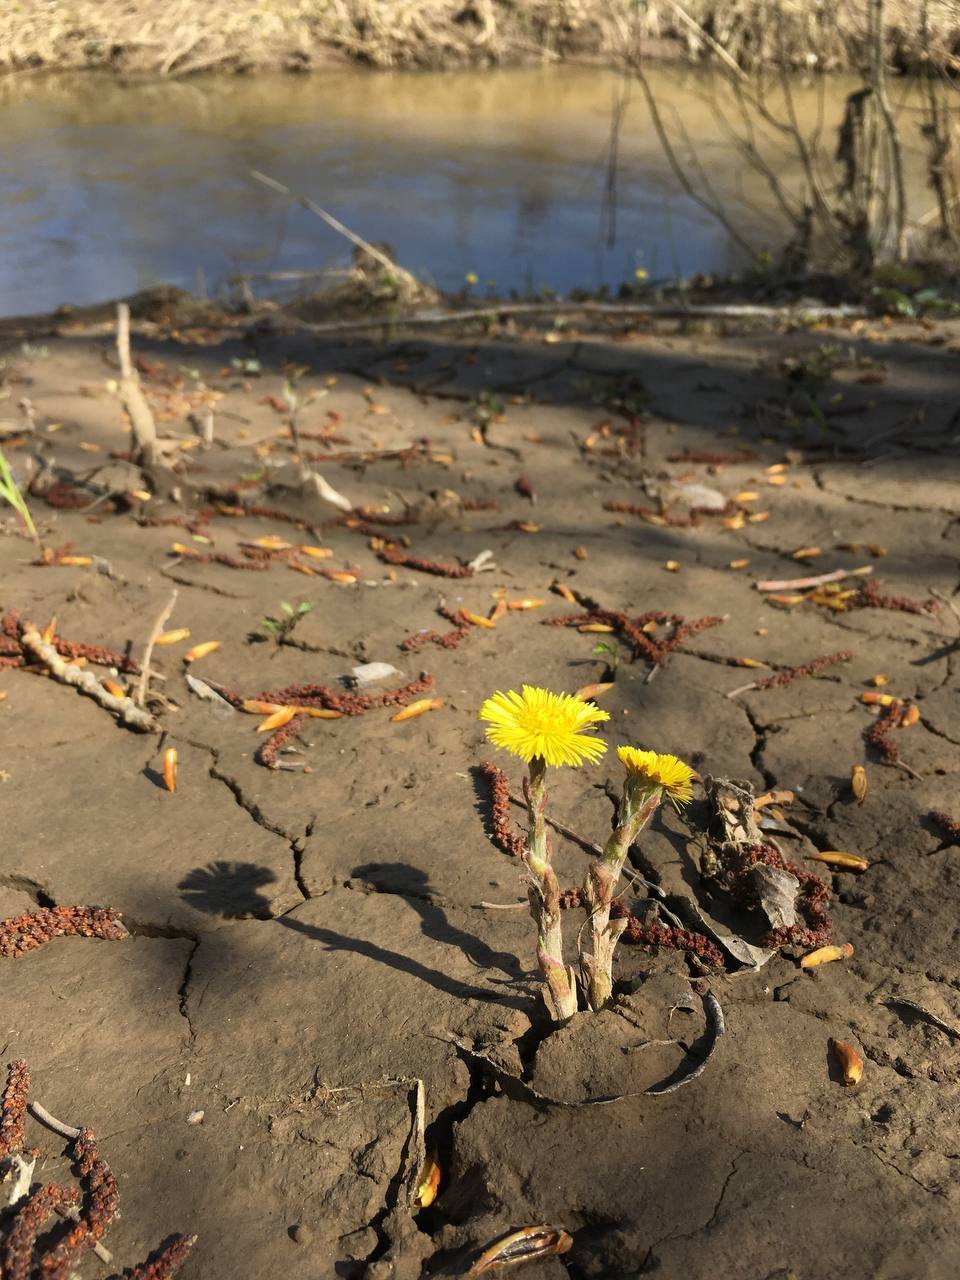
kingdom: Plantae
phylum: Tracheophyta
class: Magnoliopsida
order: Asterales
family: Asteraceae
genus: Tussilago
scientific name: Tussilago farfara
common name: Coltsfoot
